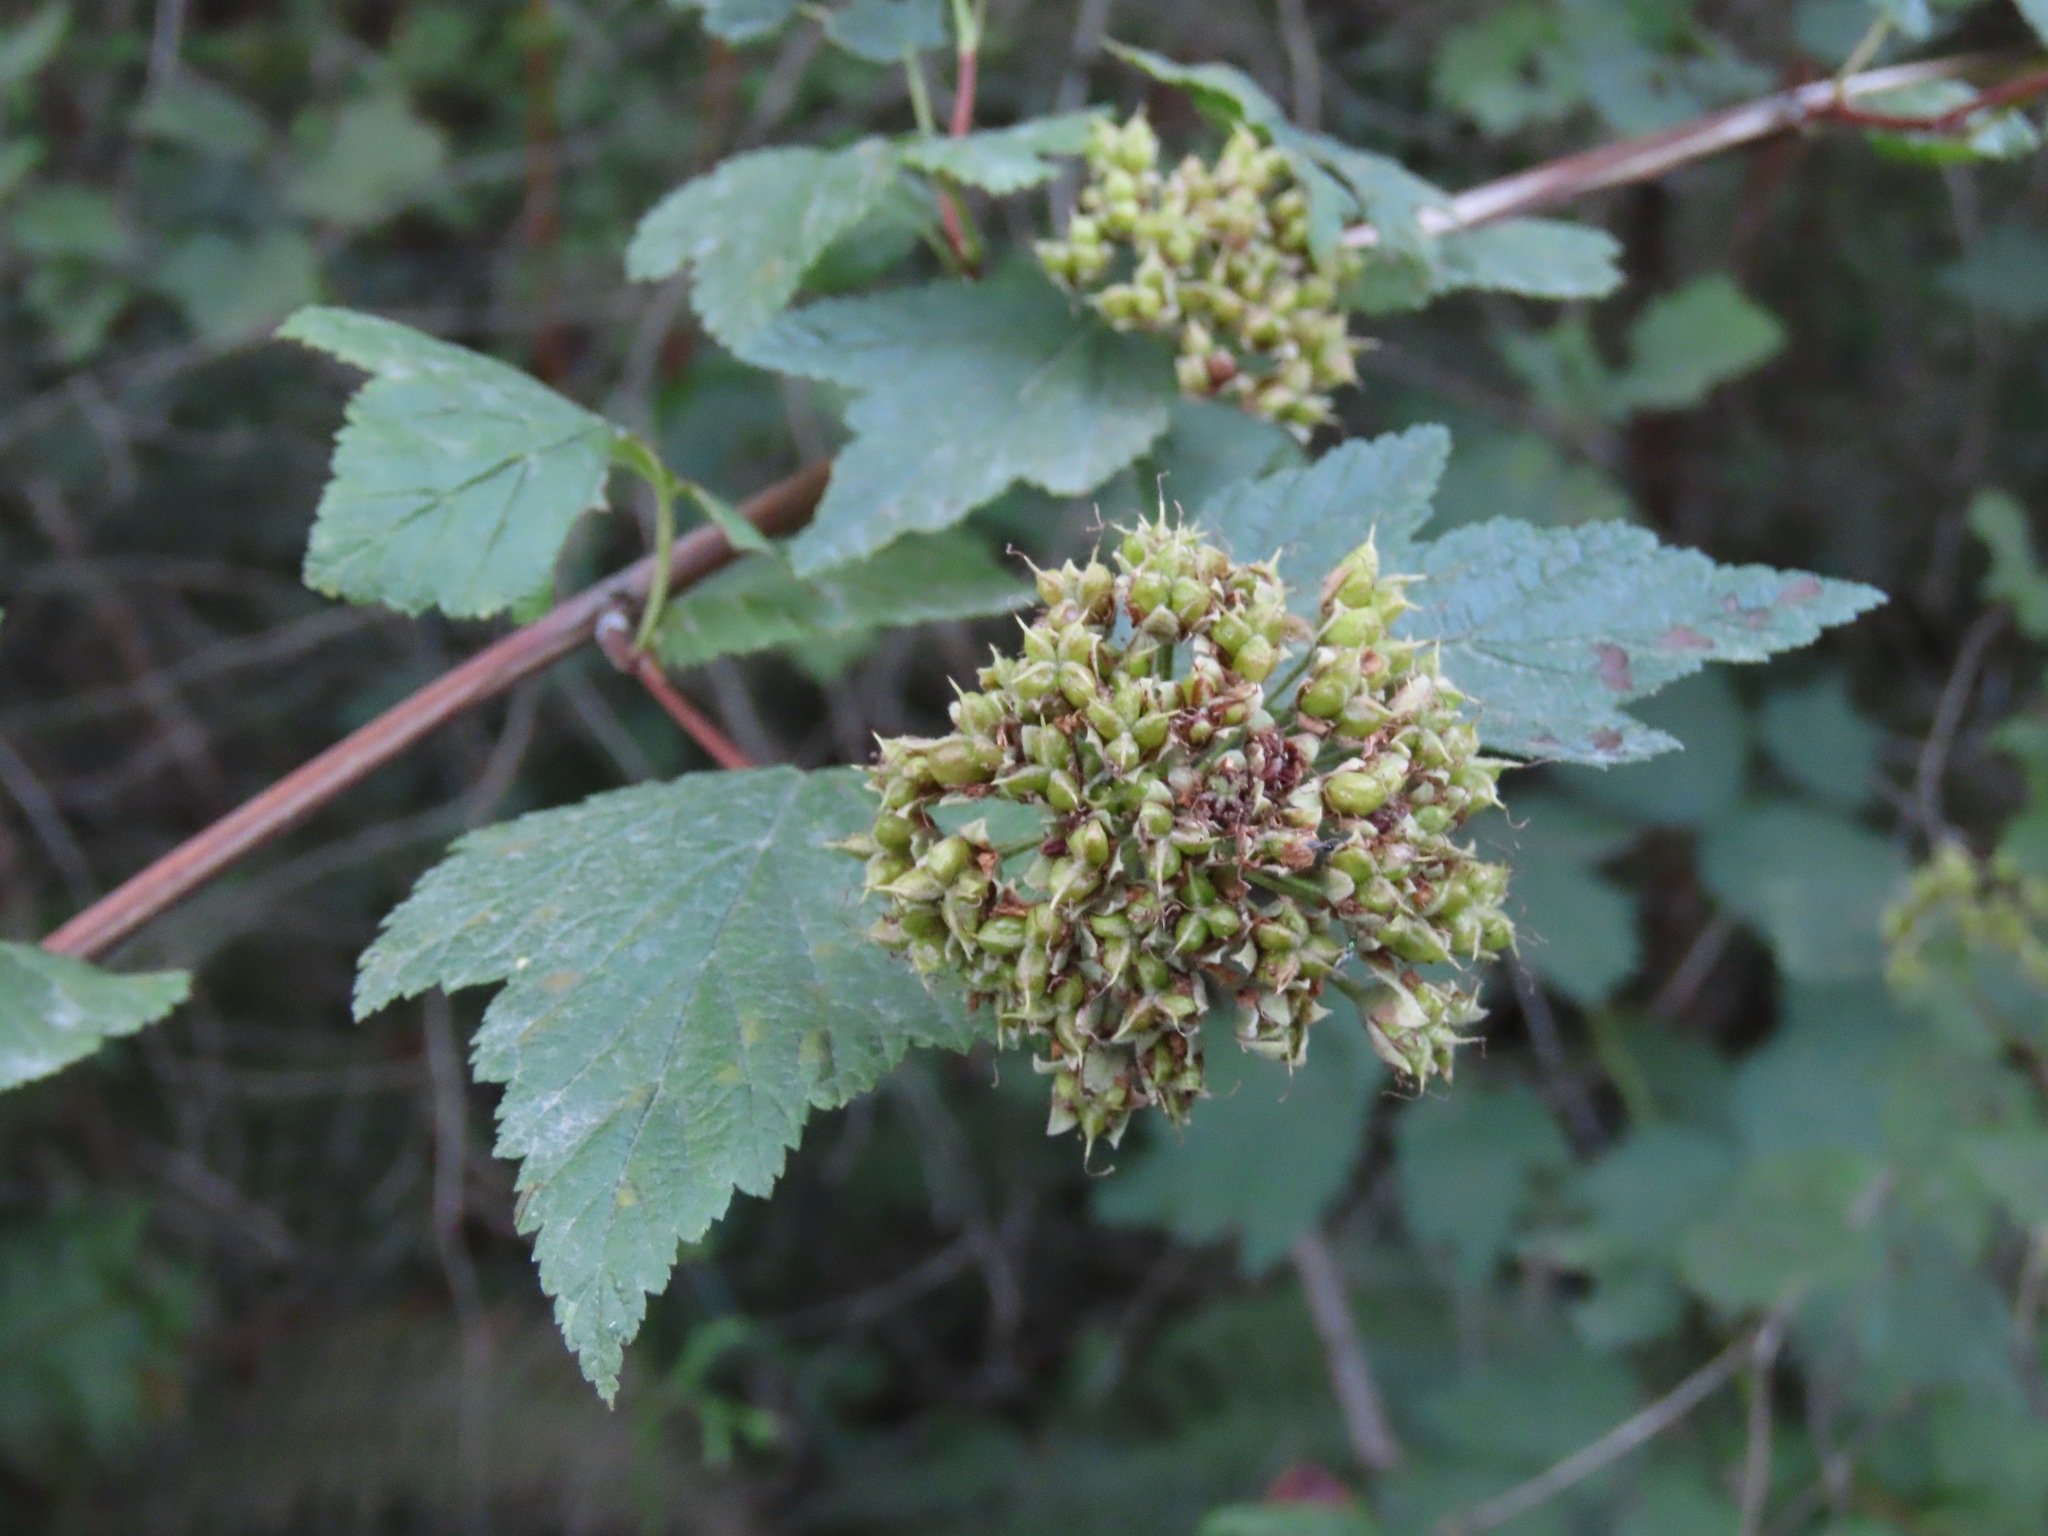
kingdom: Plantae
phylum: Tracheophyta
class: Magnoliopsida
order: Rosales
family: Rosaceae
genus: Physocarpus
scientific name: Physocarpus capitatus
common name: Pacific ninebark
